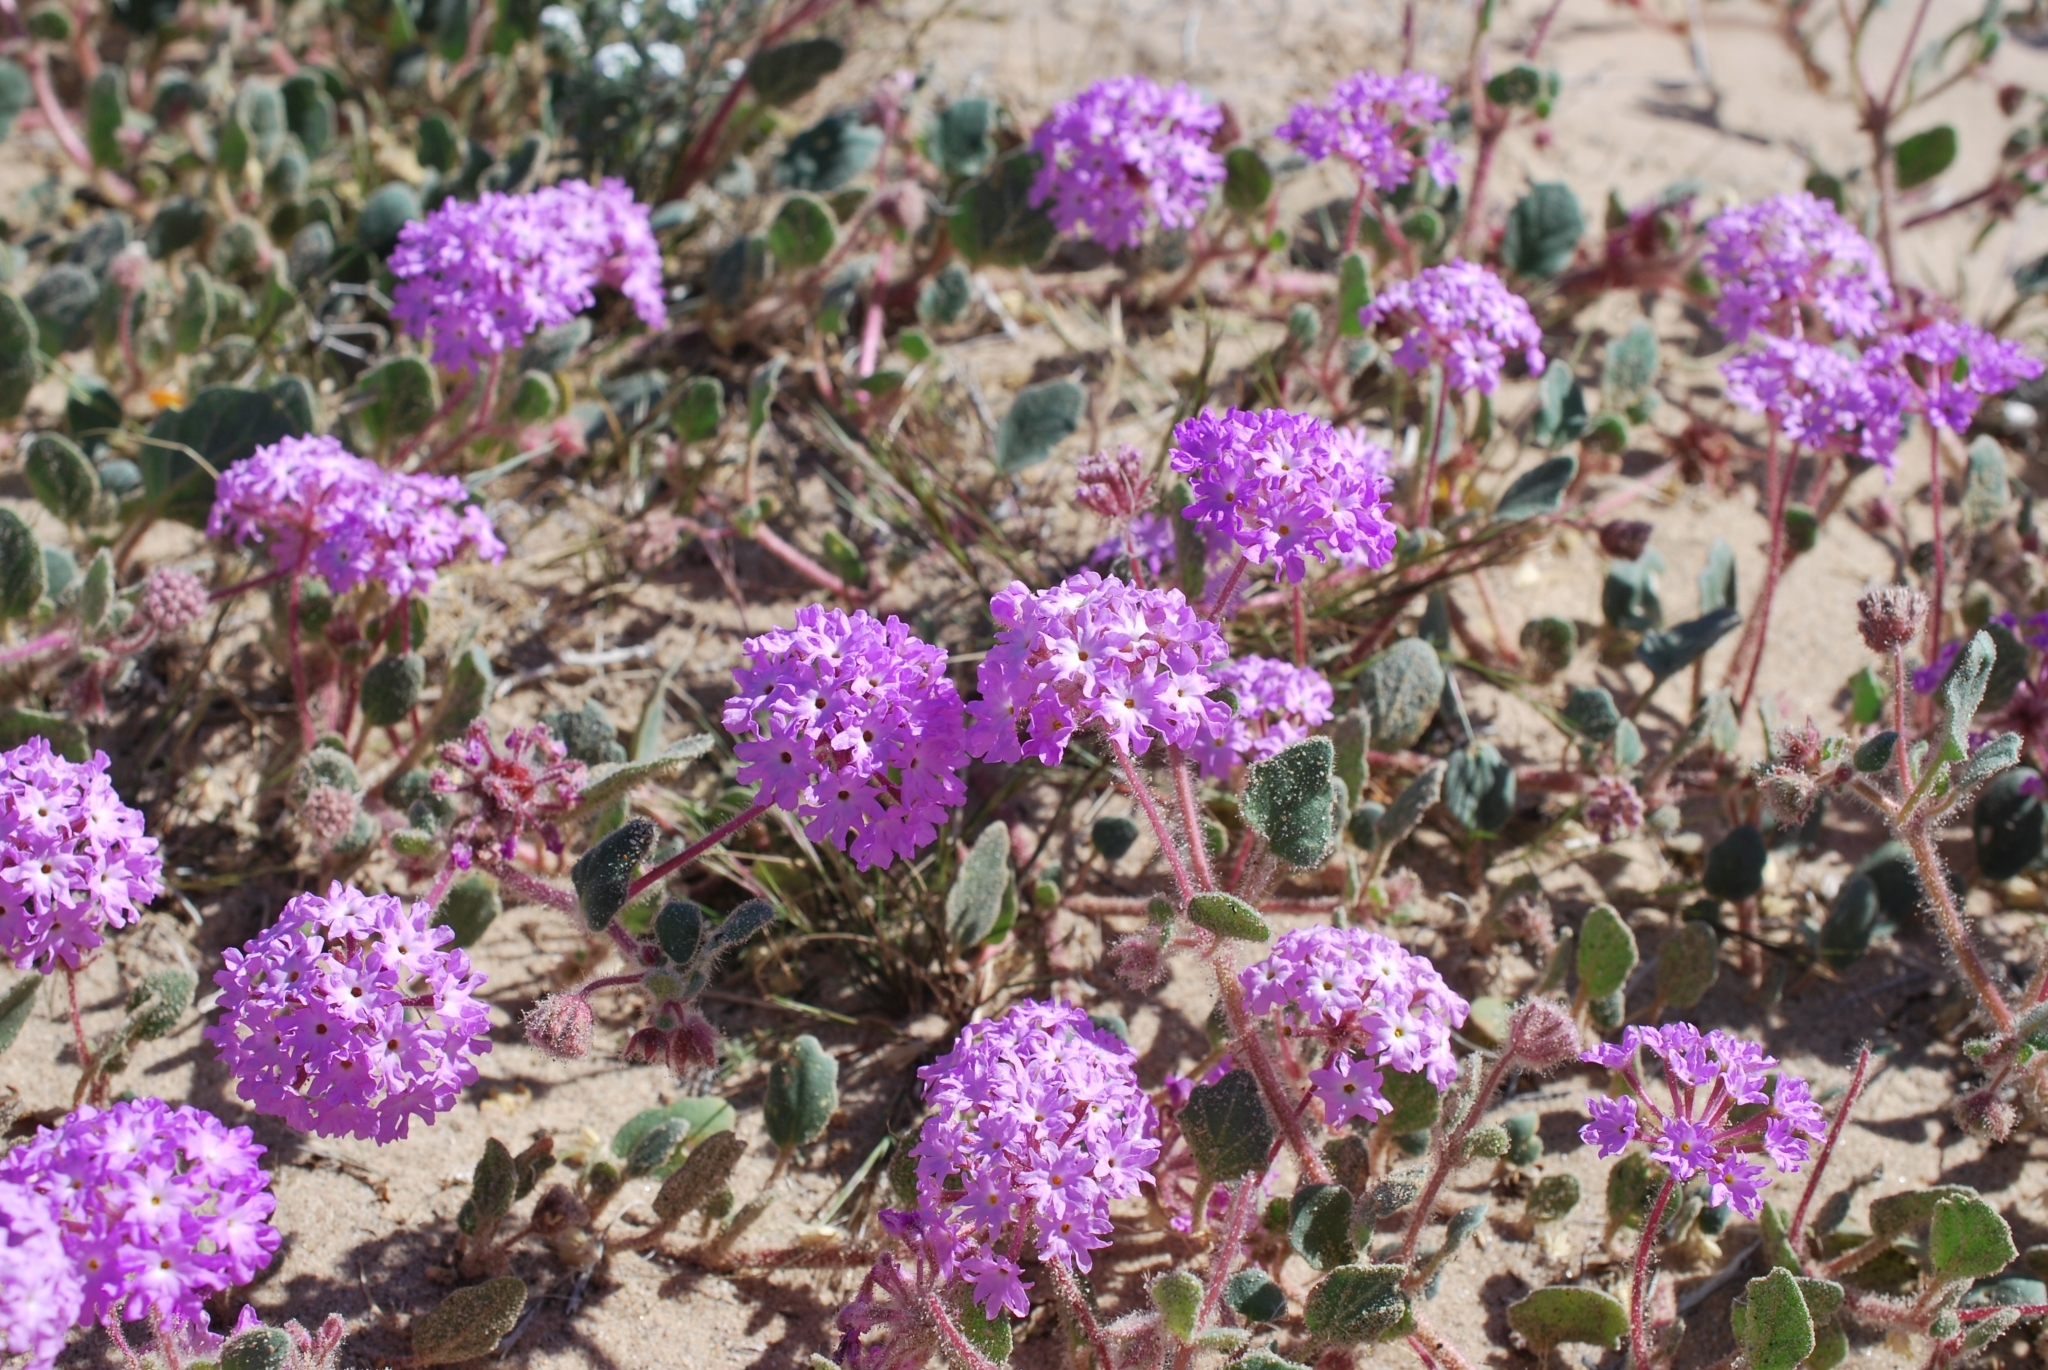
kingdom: Plantae
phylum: Tracheophyta
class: Magnoliopsida
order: Caryophyllales
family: Nyctaginaceae
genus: Abronia
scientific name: Abronia villosa
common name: Desert sand-verbena
